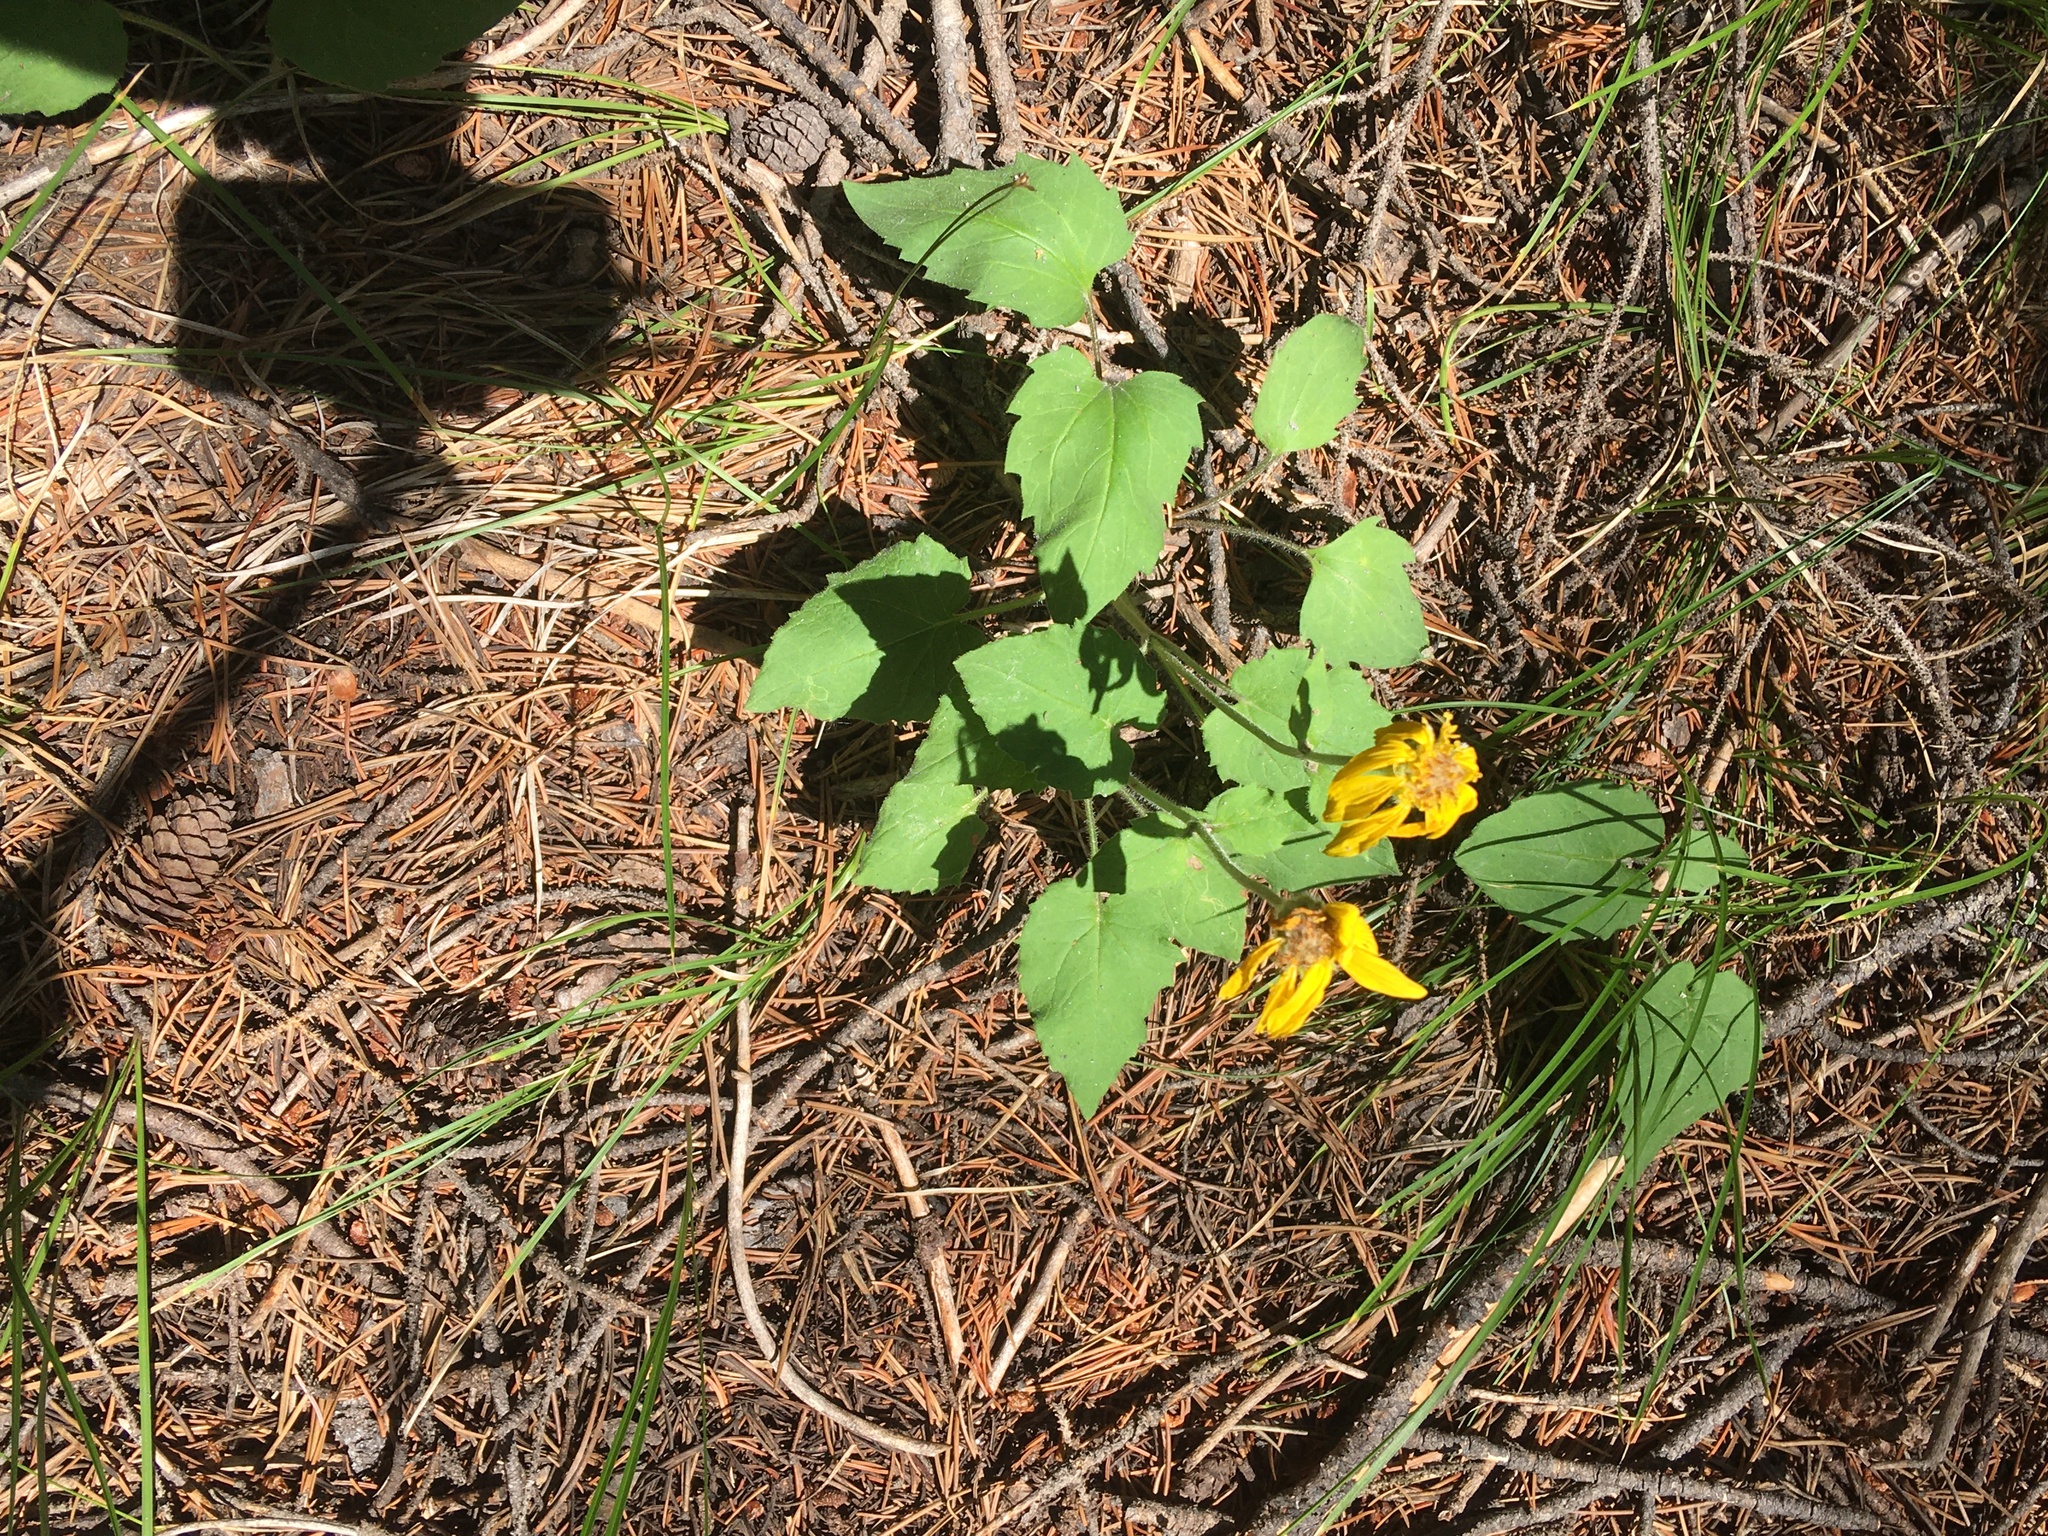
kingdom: Plantae
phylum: Tracheophyta
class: Magnoliopsida
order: Asterales
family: Asteraceae
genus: Arnica
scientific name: Arnica cordifolia
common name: Heart-leaf arnica
